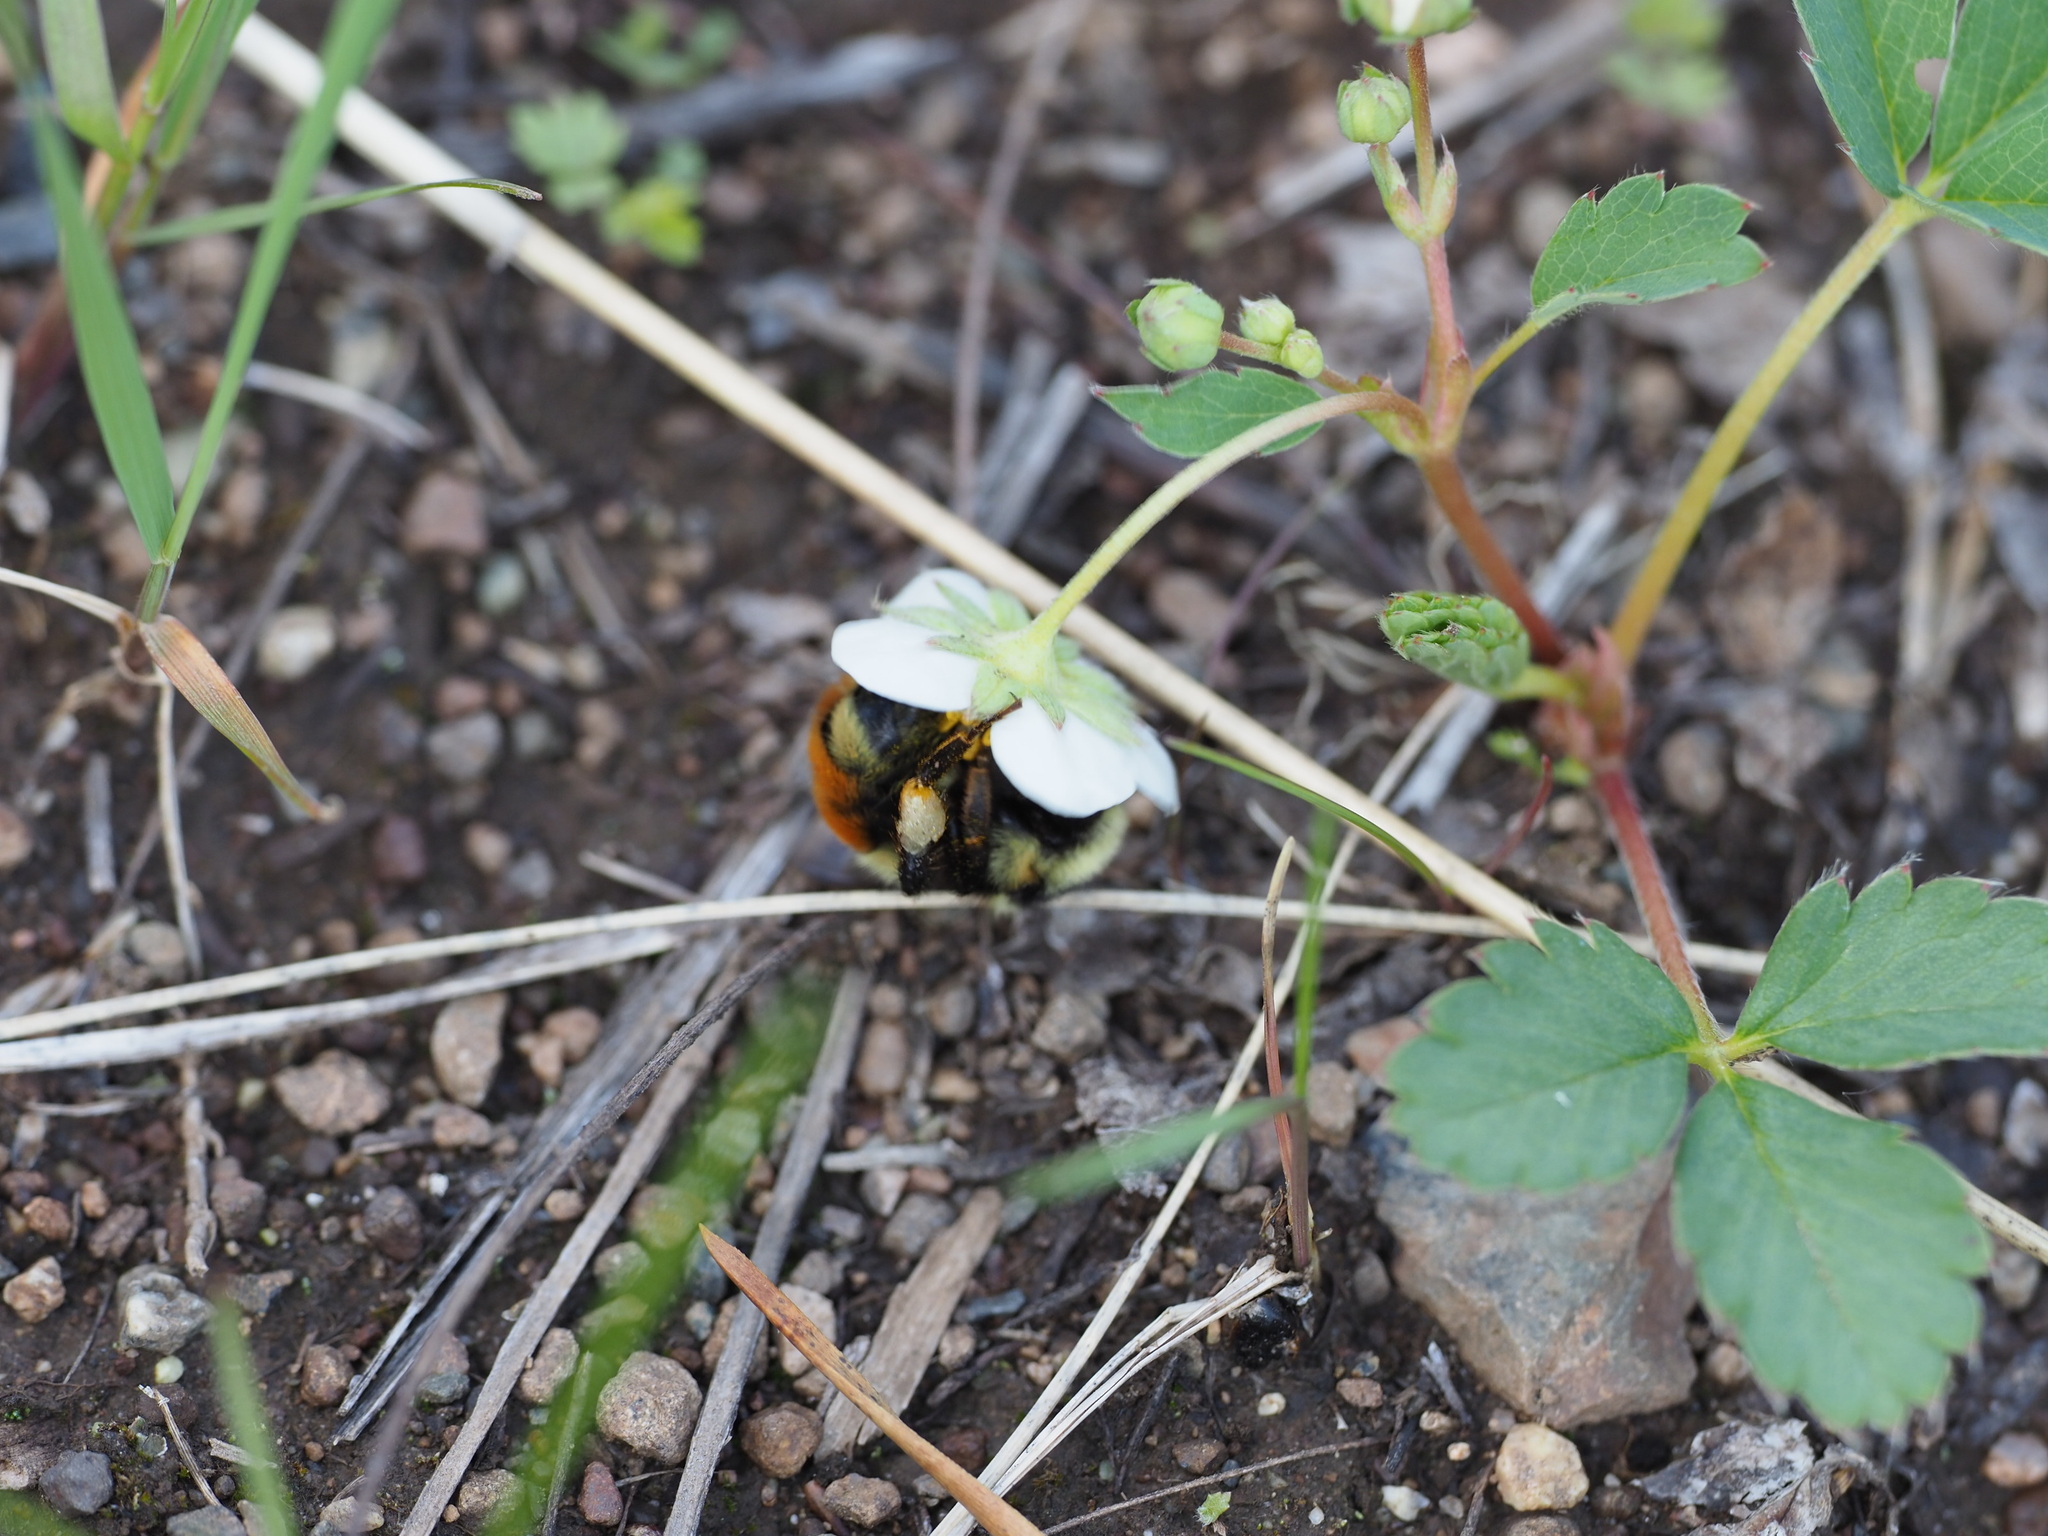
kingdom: Plantae
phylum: Tracheophyta
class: Magnoliopsida
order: Rosales
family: Rosaceae
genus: Fragaria
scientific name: Fragaria virginiana
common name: Thickleaved wild strawberry
